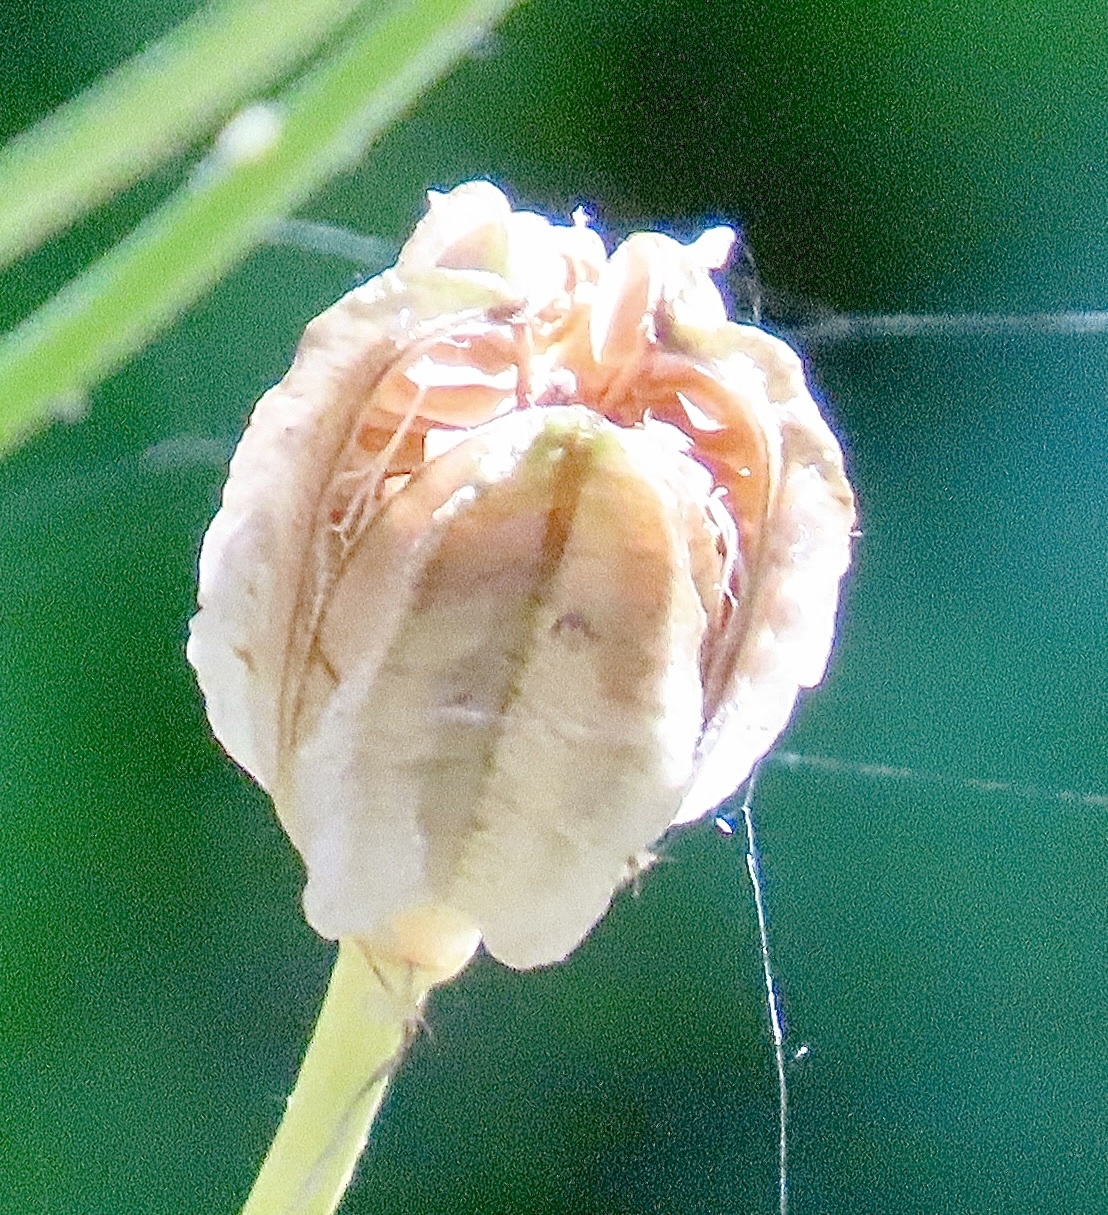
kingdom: Plantae
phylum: Tracheophyta
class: Liliopsida
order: Liliales
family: Liliaceae
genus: Lilium
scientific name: Lilium kelleyanum
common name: Kelley's lily
